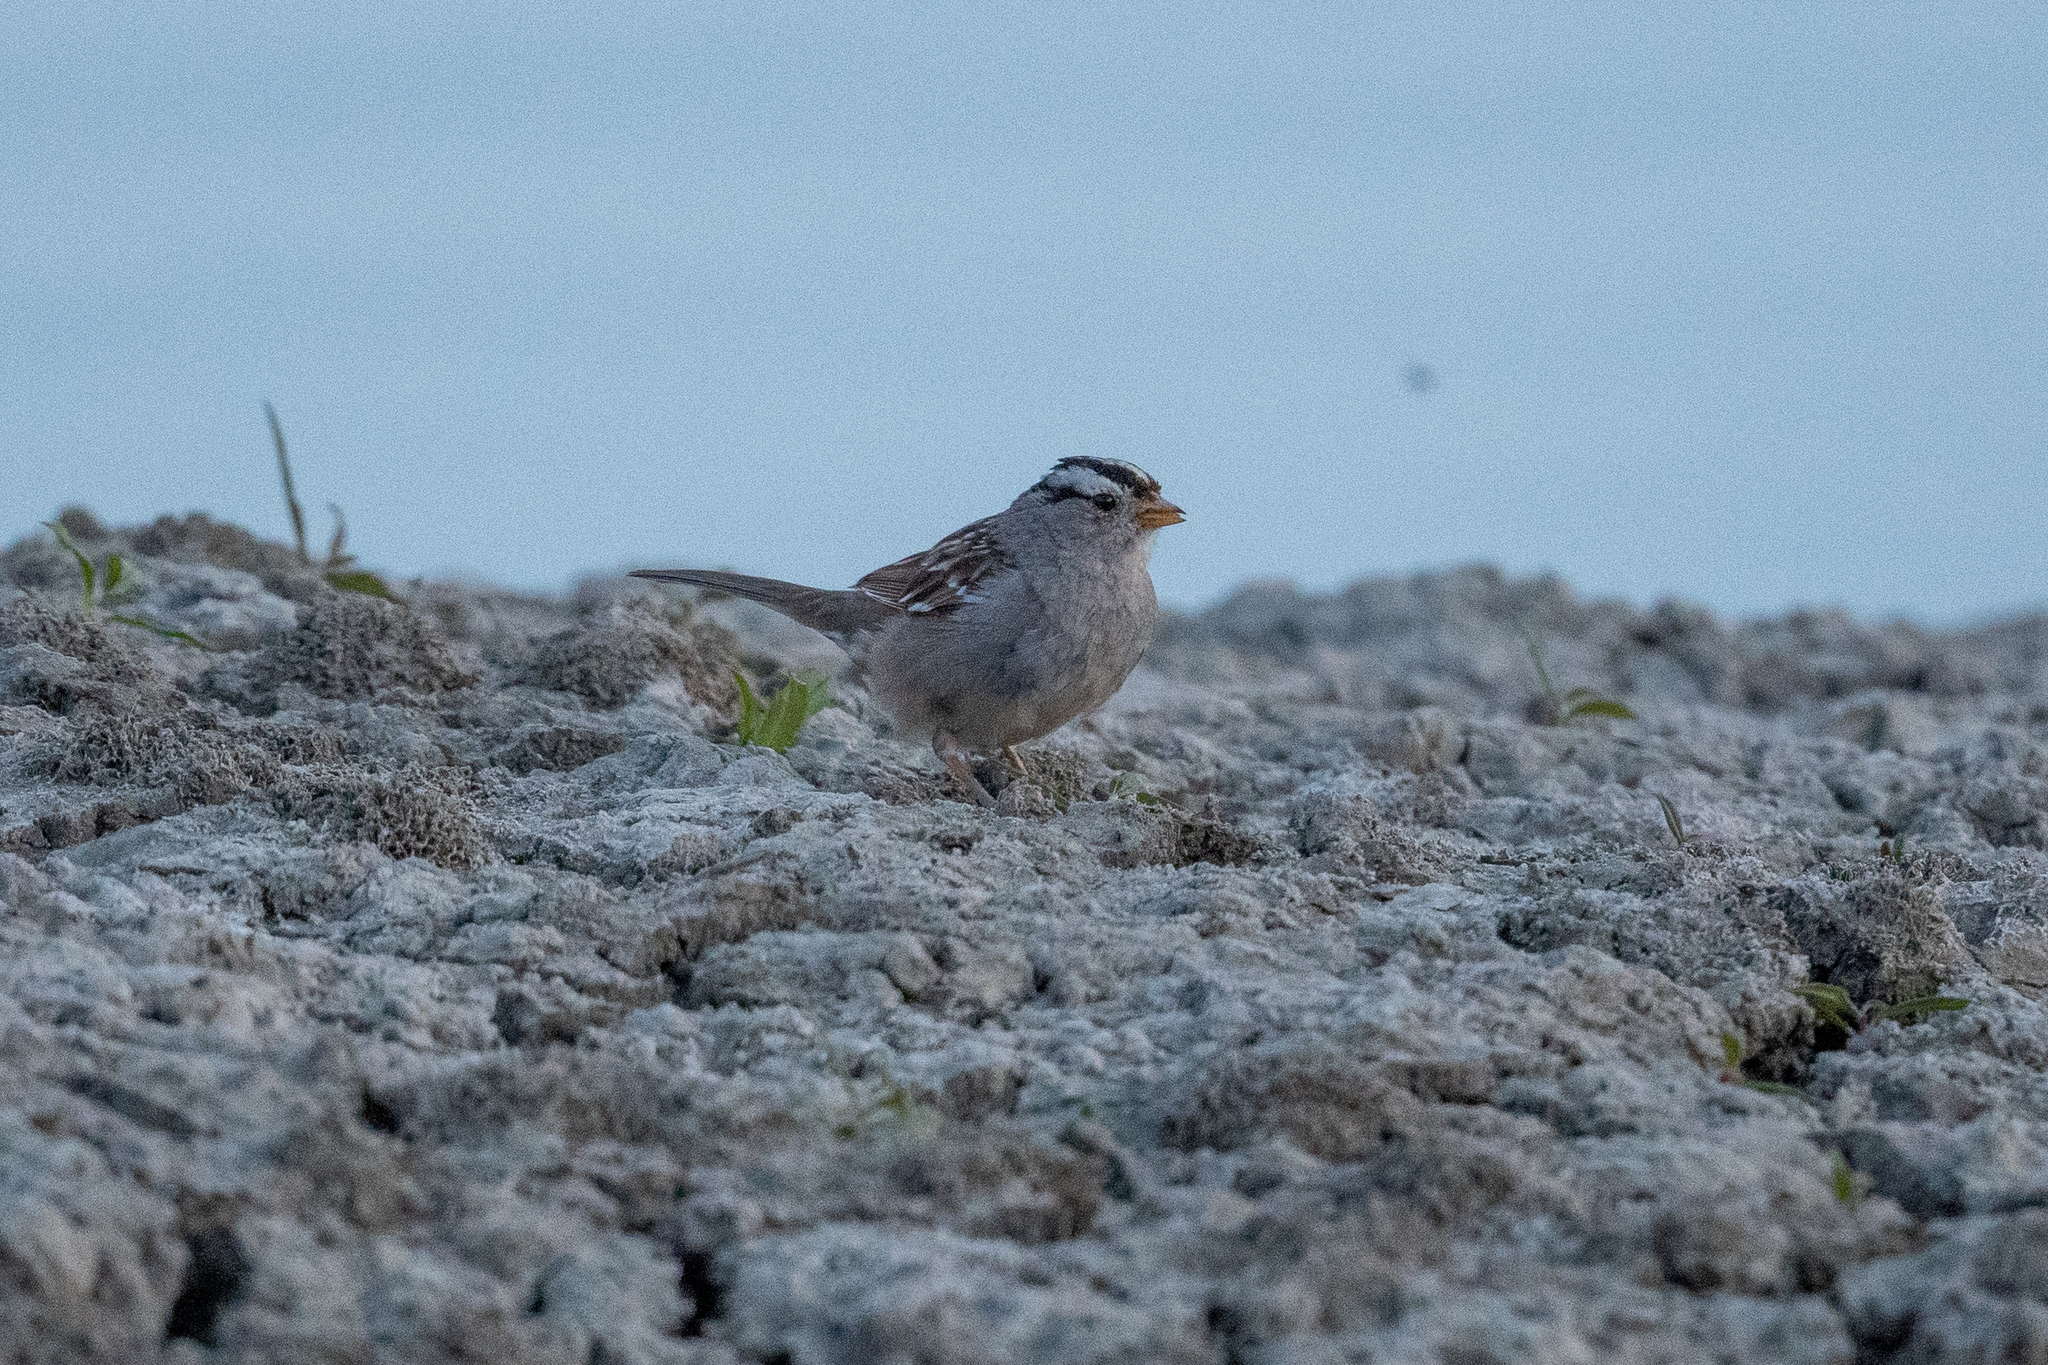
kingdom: Animalia
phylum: Chordata
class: Aves
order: Passeriformes
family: Passerellidae
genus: Zonotrichia
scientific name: Zonotrichia leucophrys
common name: White-crowned sparrow
